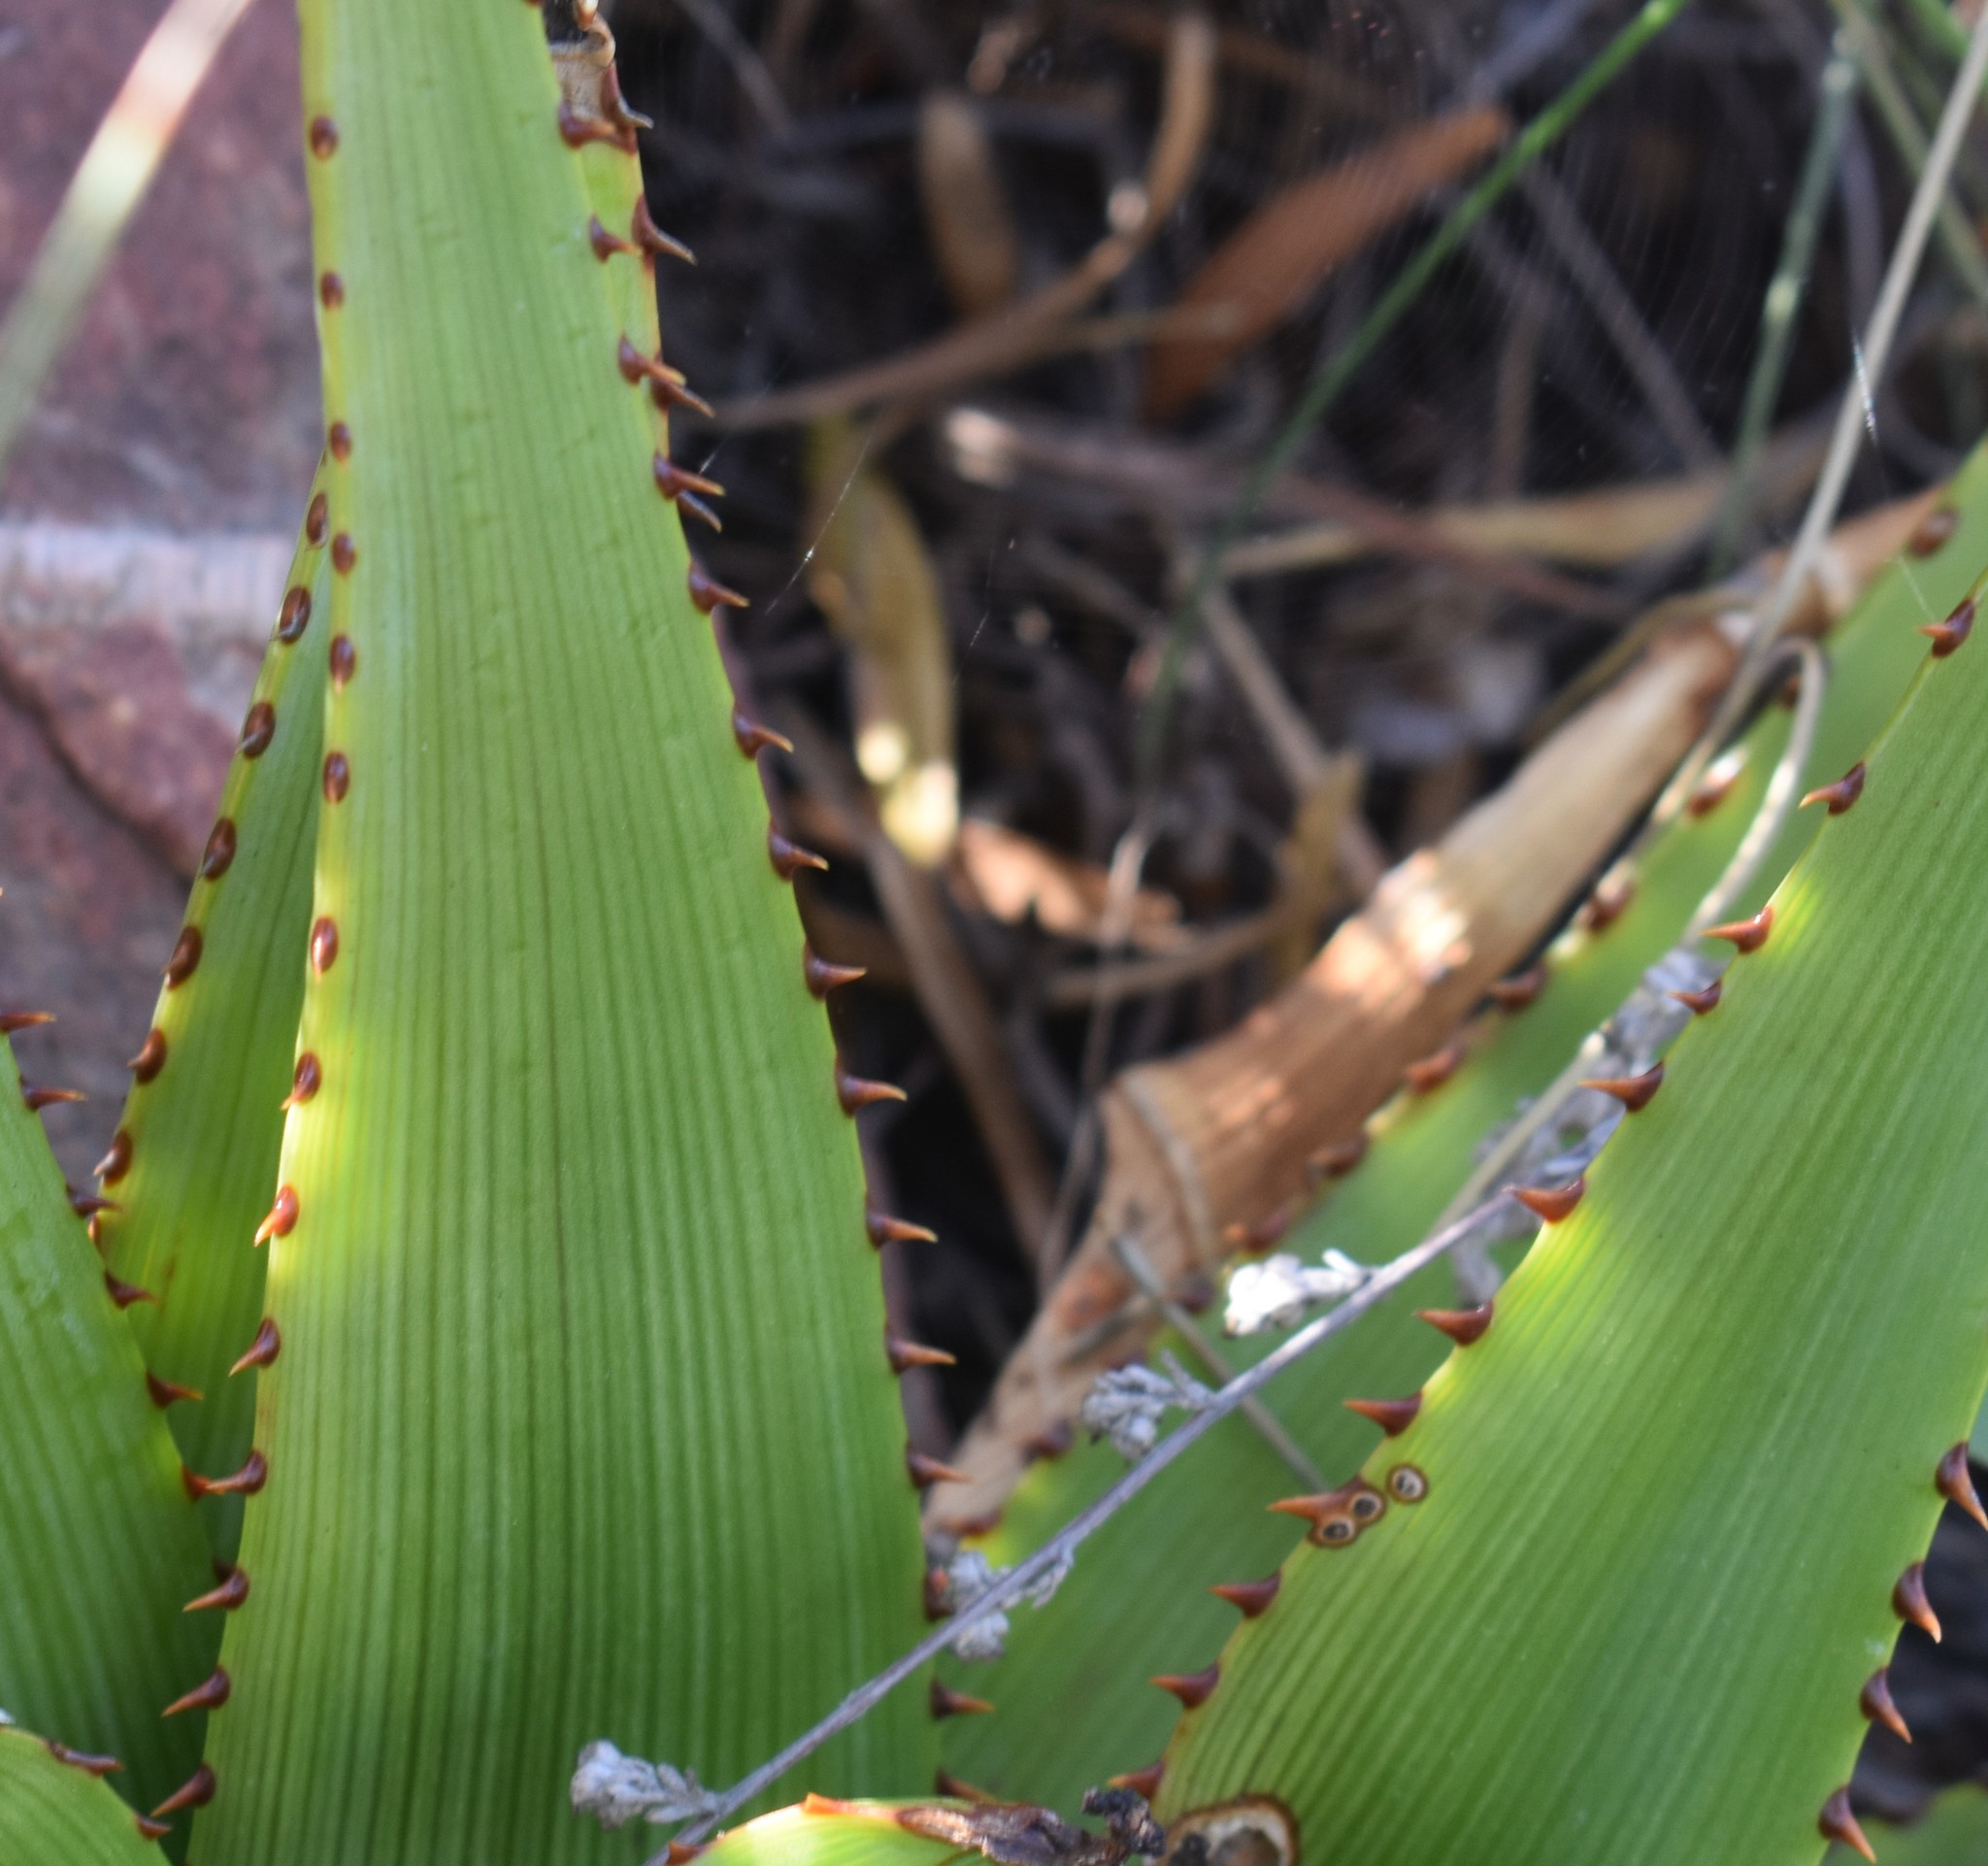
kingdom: Plantae
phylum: Tracheophyta
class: Liliopsida
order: Asparagales
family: Asphodelaceae
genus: Aloe
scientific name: Aloe lineata
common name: Lined red-spined aloe
